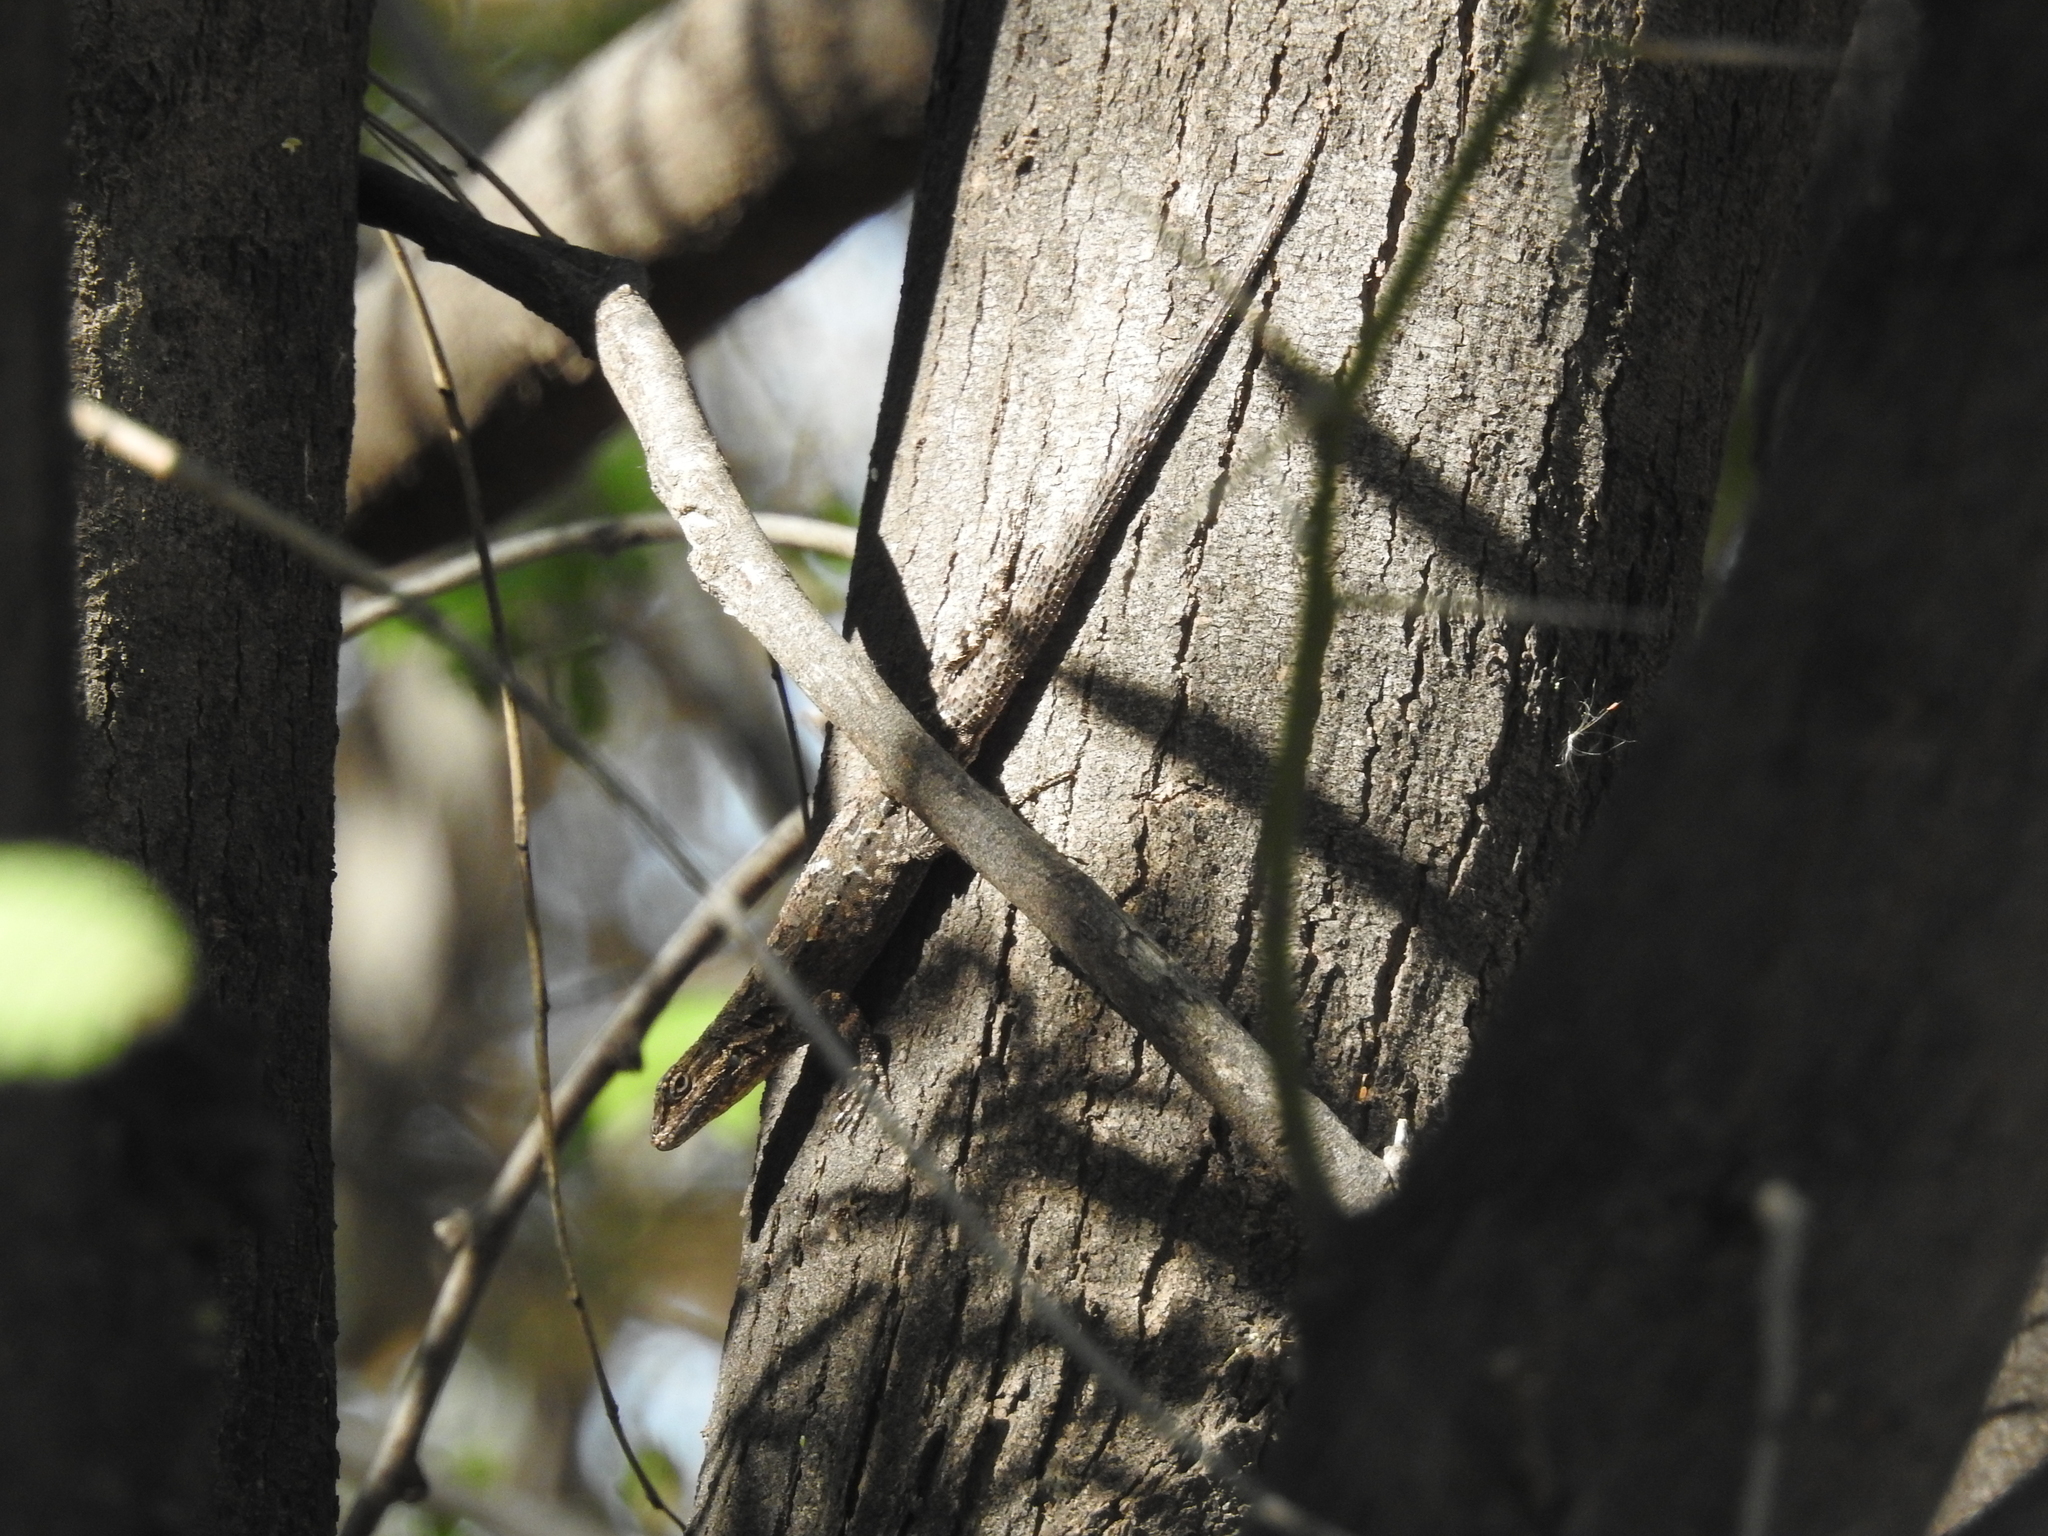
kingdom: Animalia
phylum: Chordata
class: Squamata
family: Phrynosomatidae
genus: Urosaurus
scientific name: Urosaurus ornatus
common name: Ornate tree lizard
